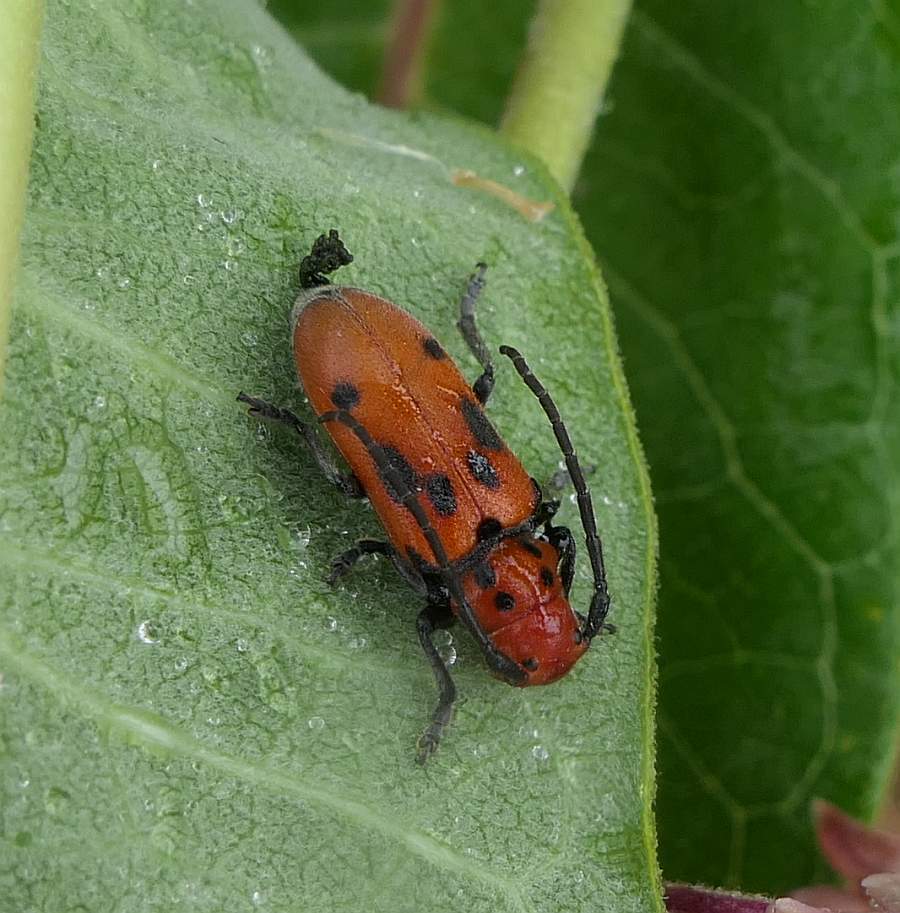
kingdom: Animalia
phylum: Arthropoda
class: Insecta
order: Coleoptera
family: Cerambycidae
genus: Tetraopes
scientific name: Tetraopes tetrophthalmus
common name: Red milkweed beetle
